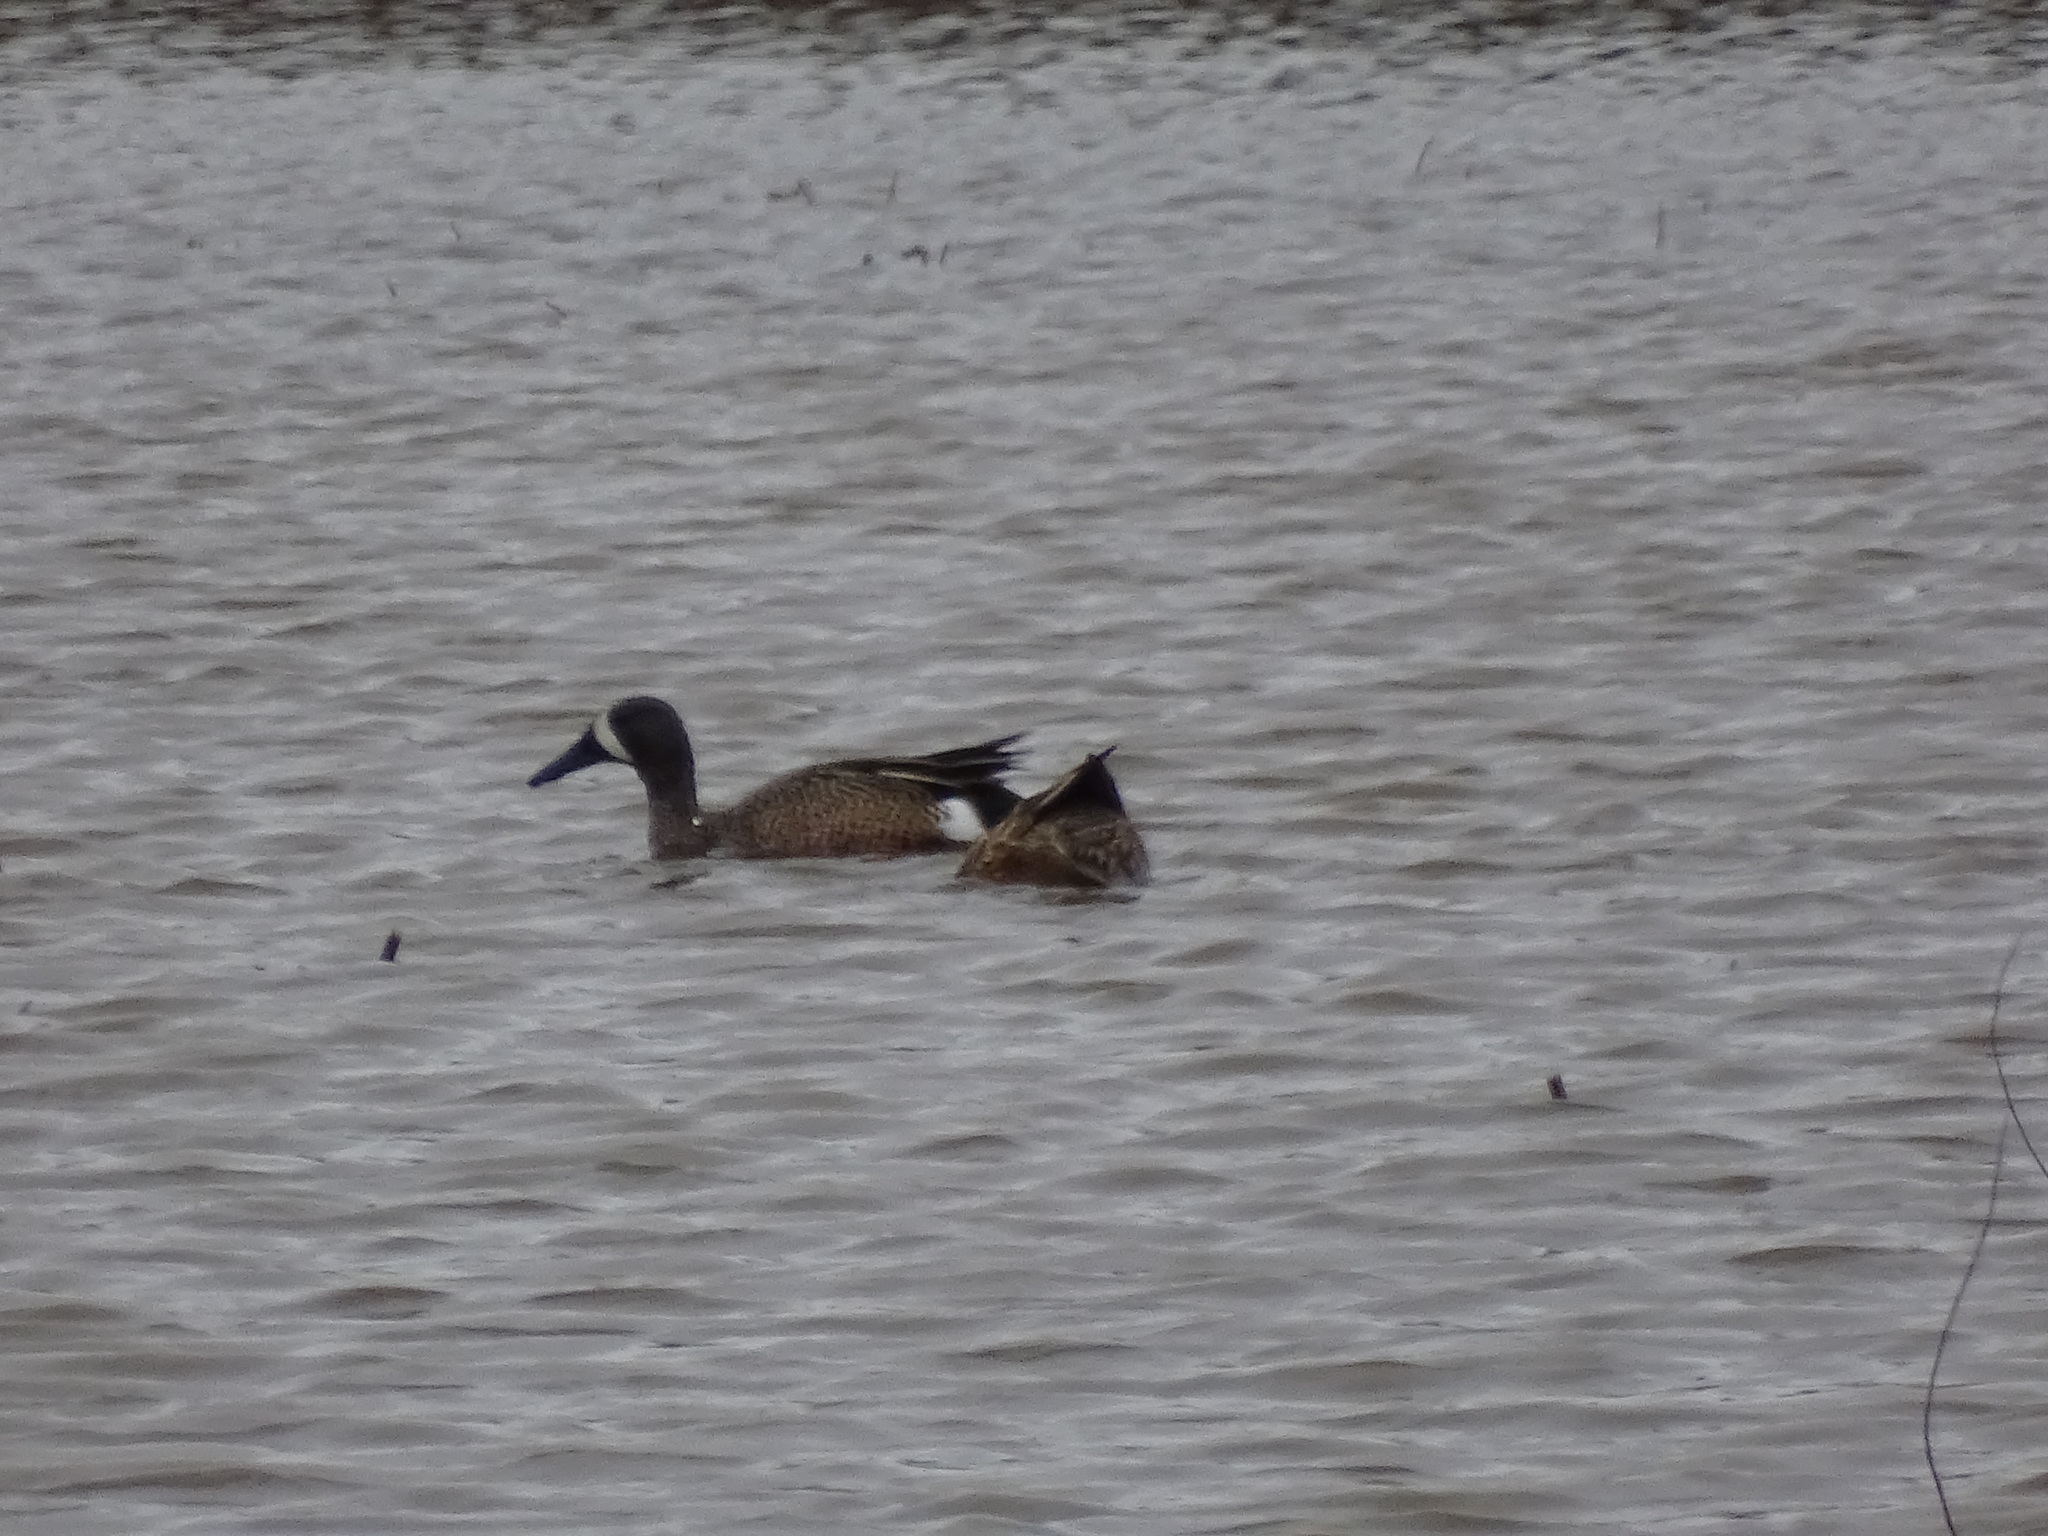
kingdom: Animalia
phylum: Chordata
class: Aves
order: Anseriformes
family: Anatidae
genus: Spatula
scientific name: Spatula discors
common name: Blue-winged teal
